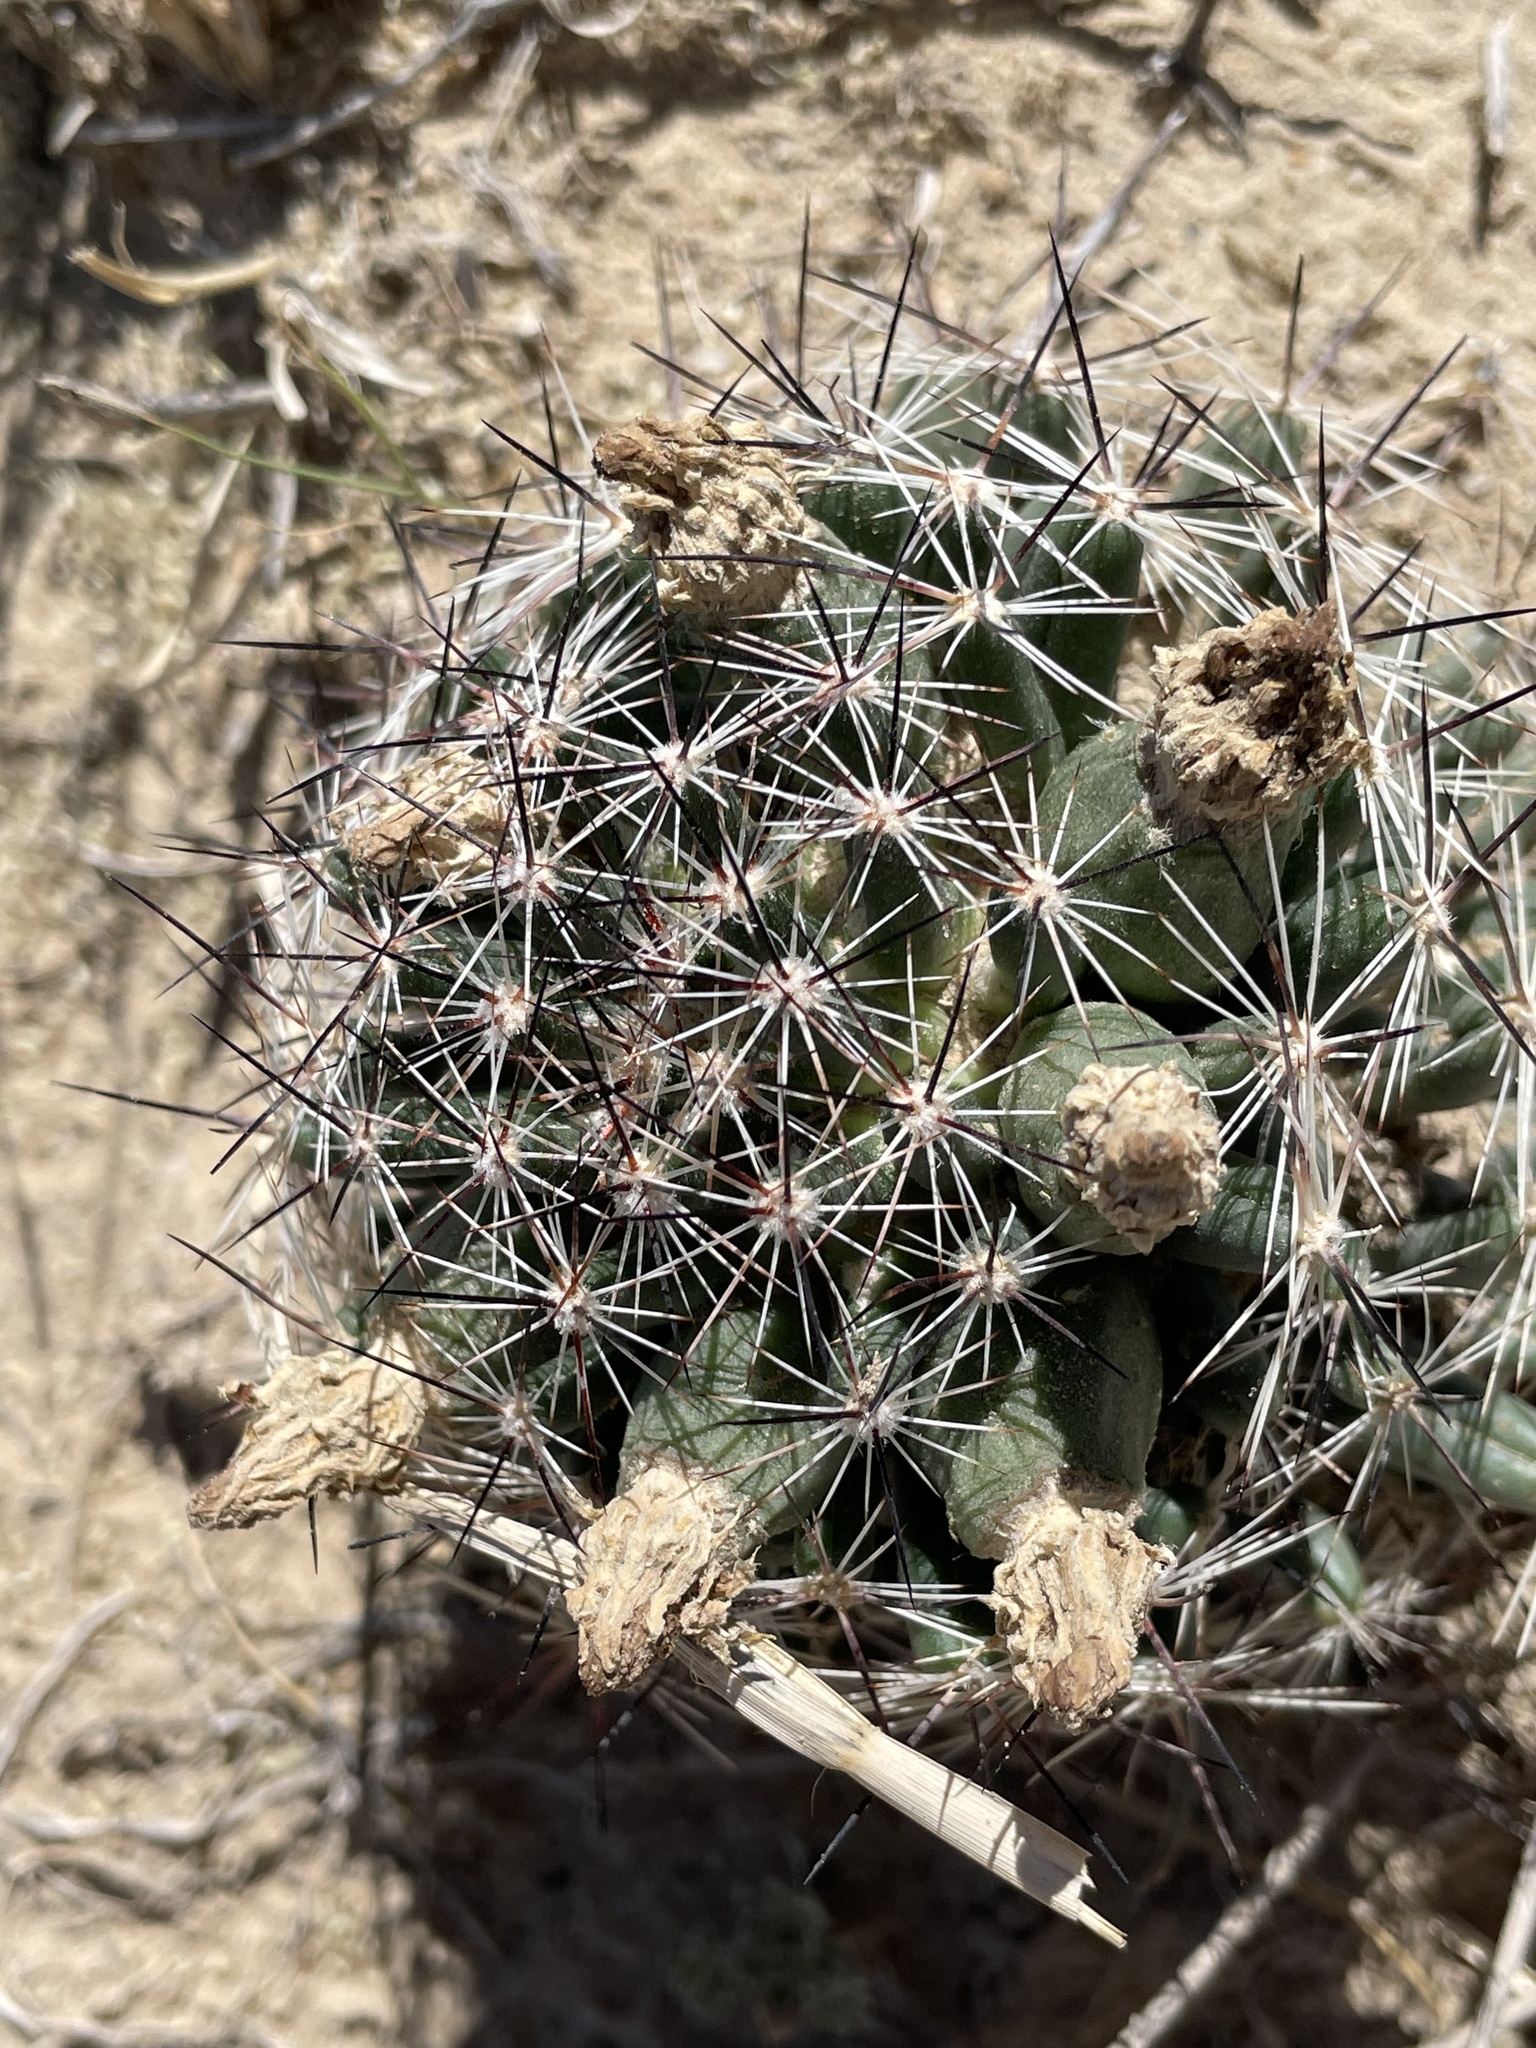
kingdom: Plantae
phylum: Tracheophyta
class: Magnoliopsida
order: Caryophyllales
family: Cactaceae
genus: Pelecyphora
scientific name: Pelecyphora vivipara
